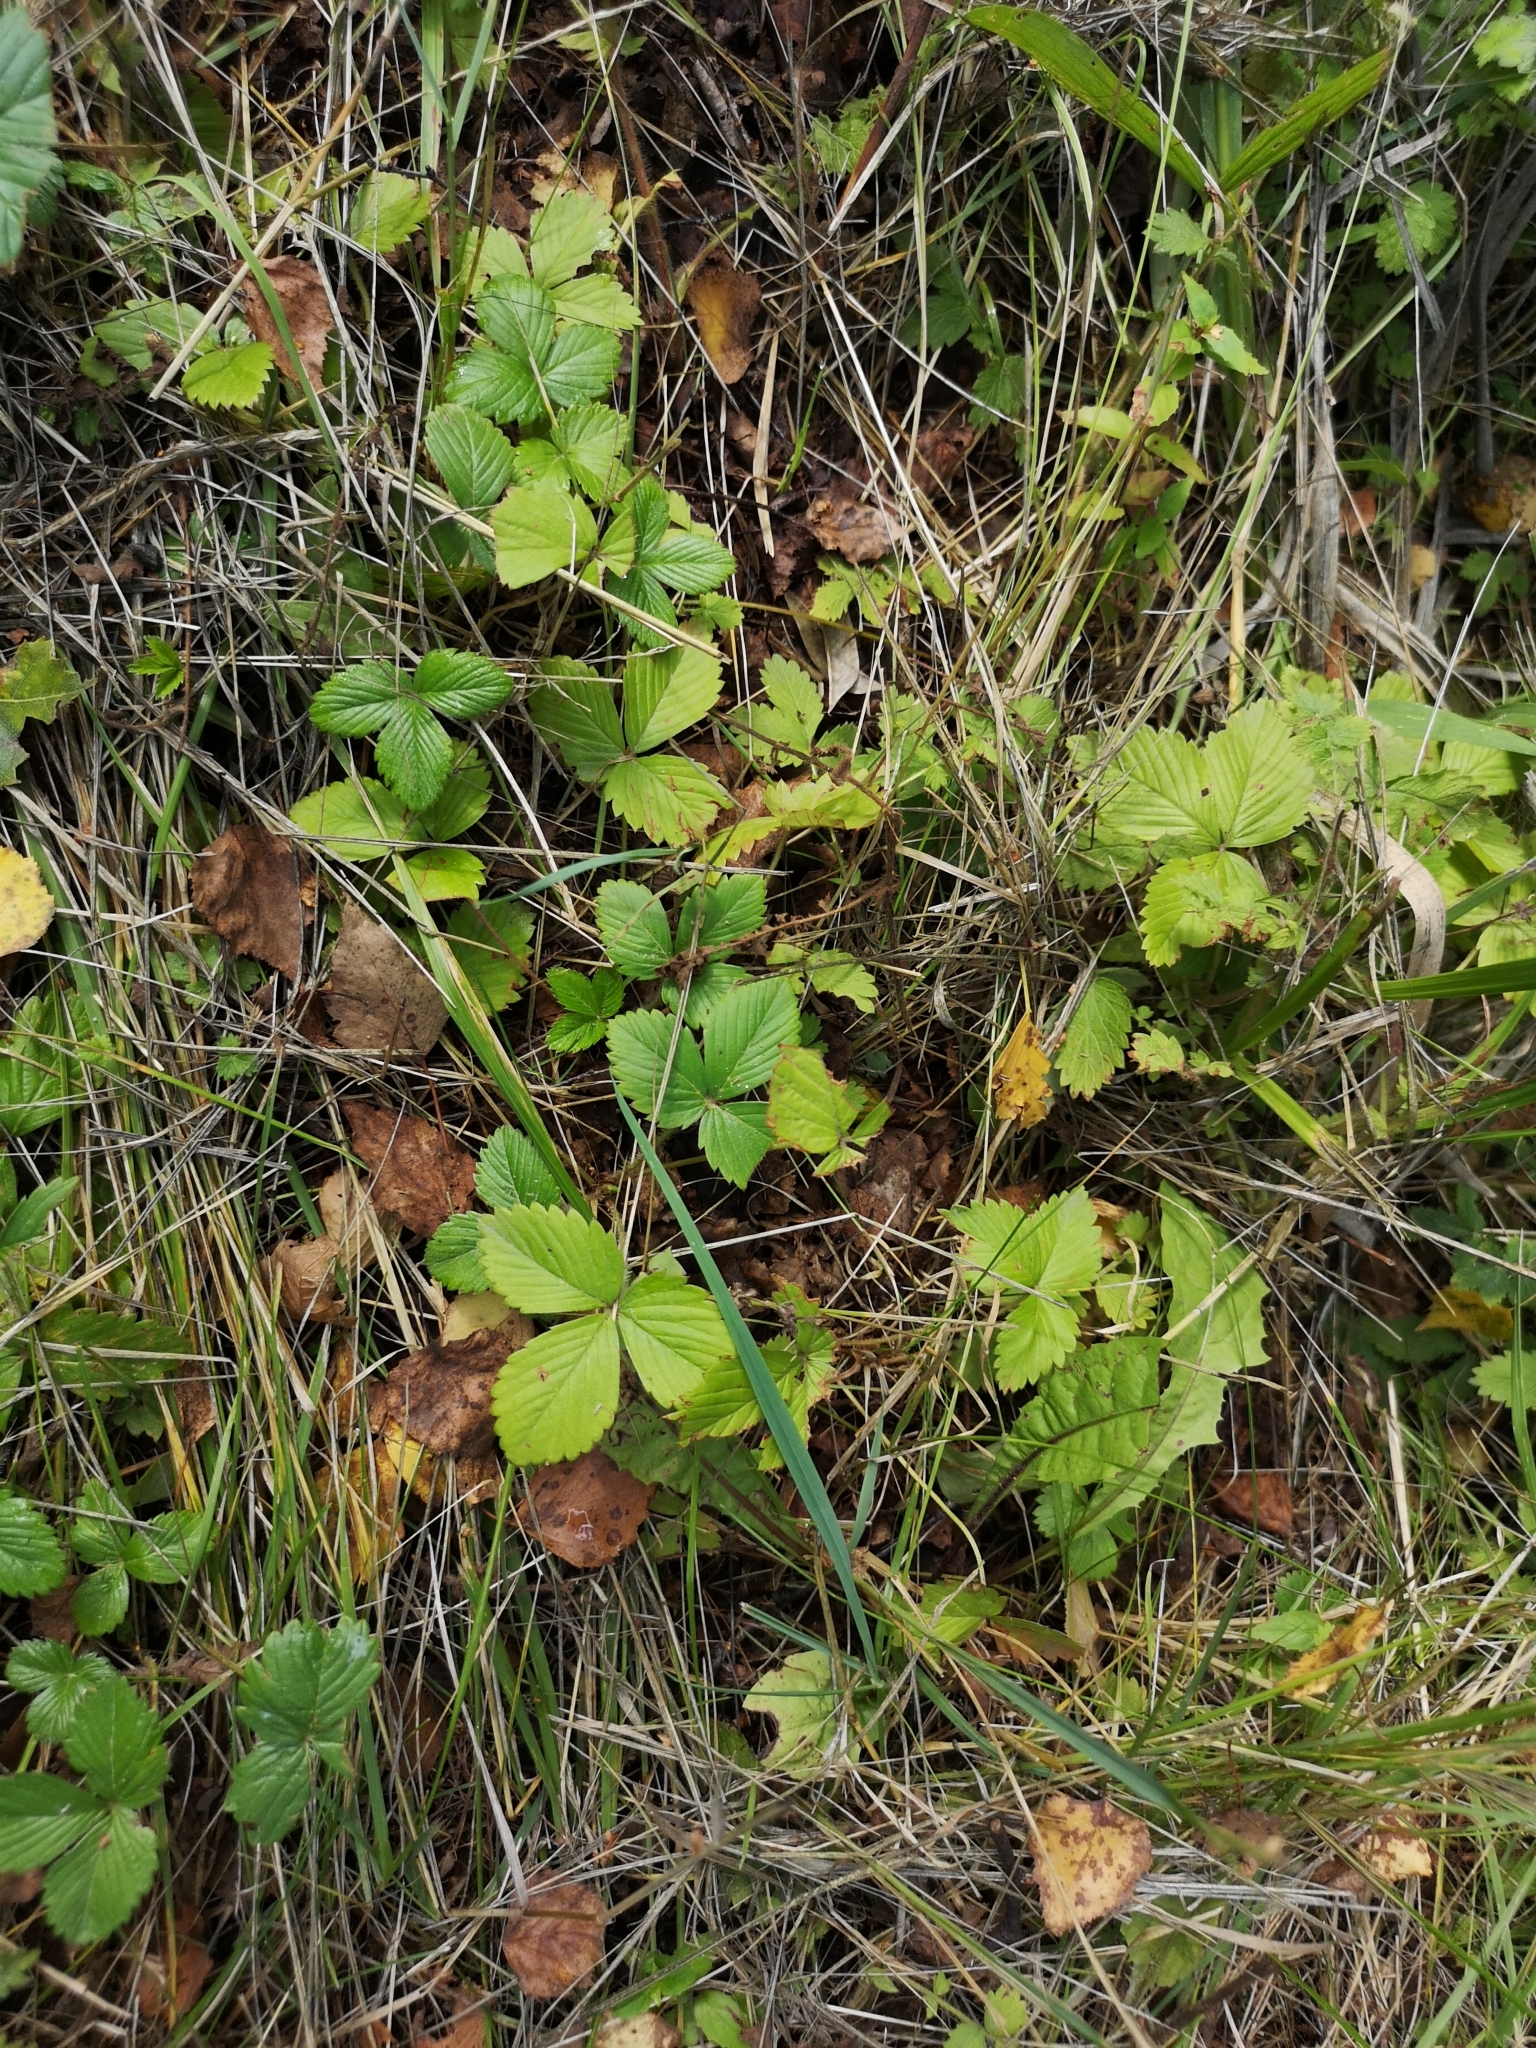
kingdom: Plantae
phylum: Tracheophyta
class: Magnoliopsida
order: Rosales
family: Rosaceae
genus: Fragaria
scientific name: Fragaria vesca
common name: Wild strawberry
